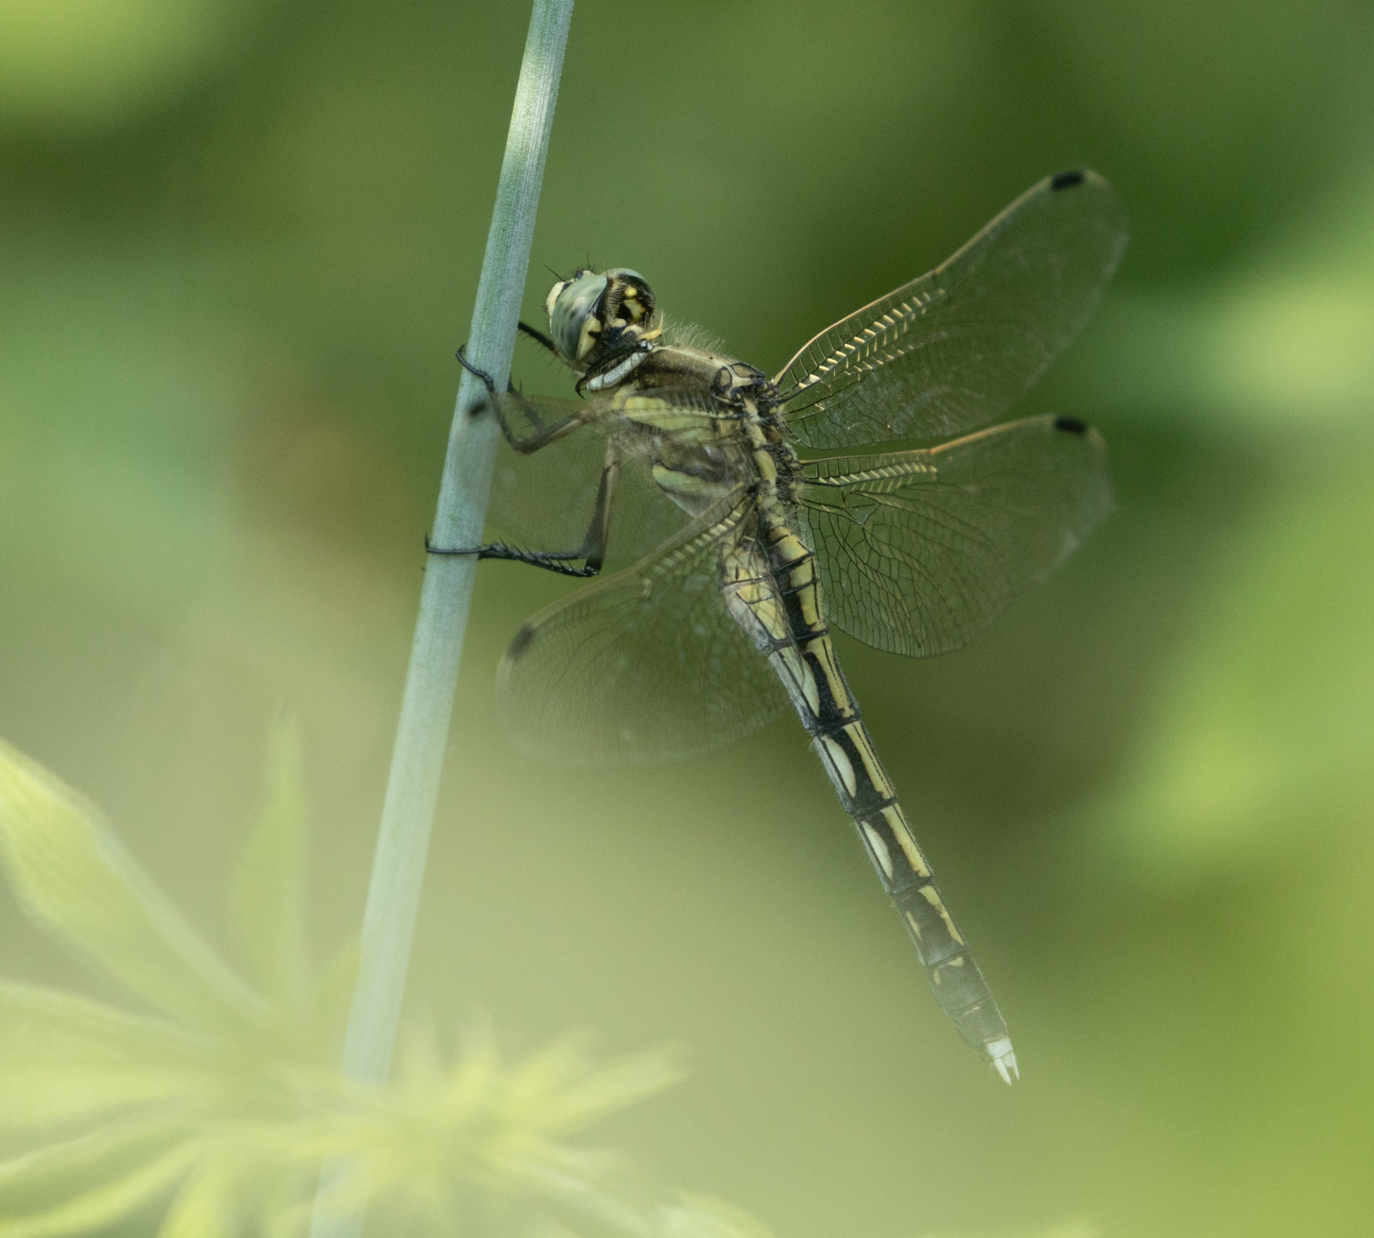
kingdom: Animalia
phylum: Arthropoda
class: Insecta
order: Odonata
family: Libellulidae
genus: Orthetrum
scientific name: Orthetrum albistylum
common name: White-tailed skimmer
